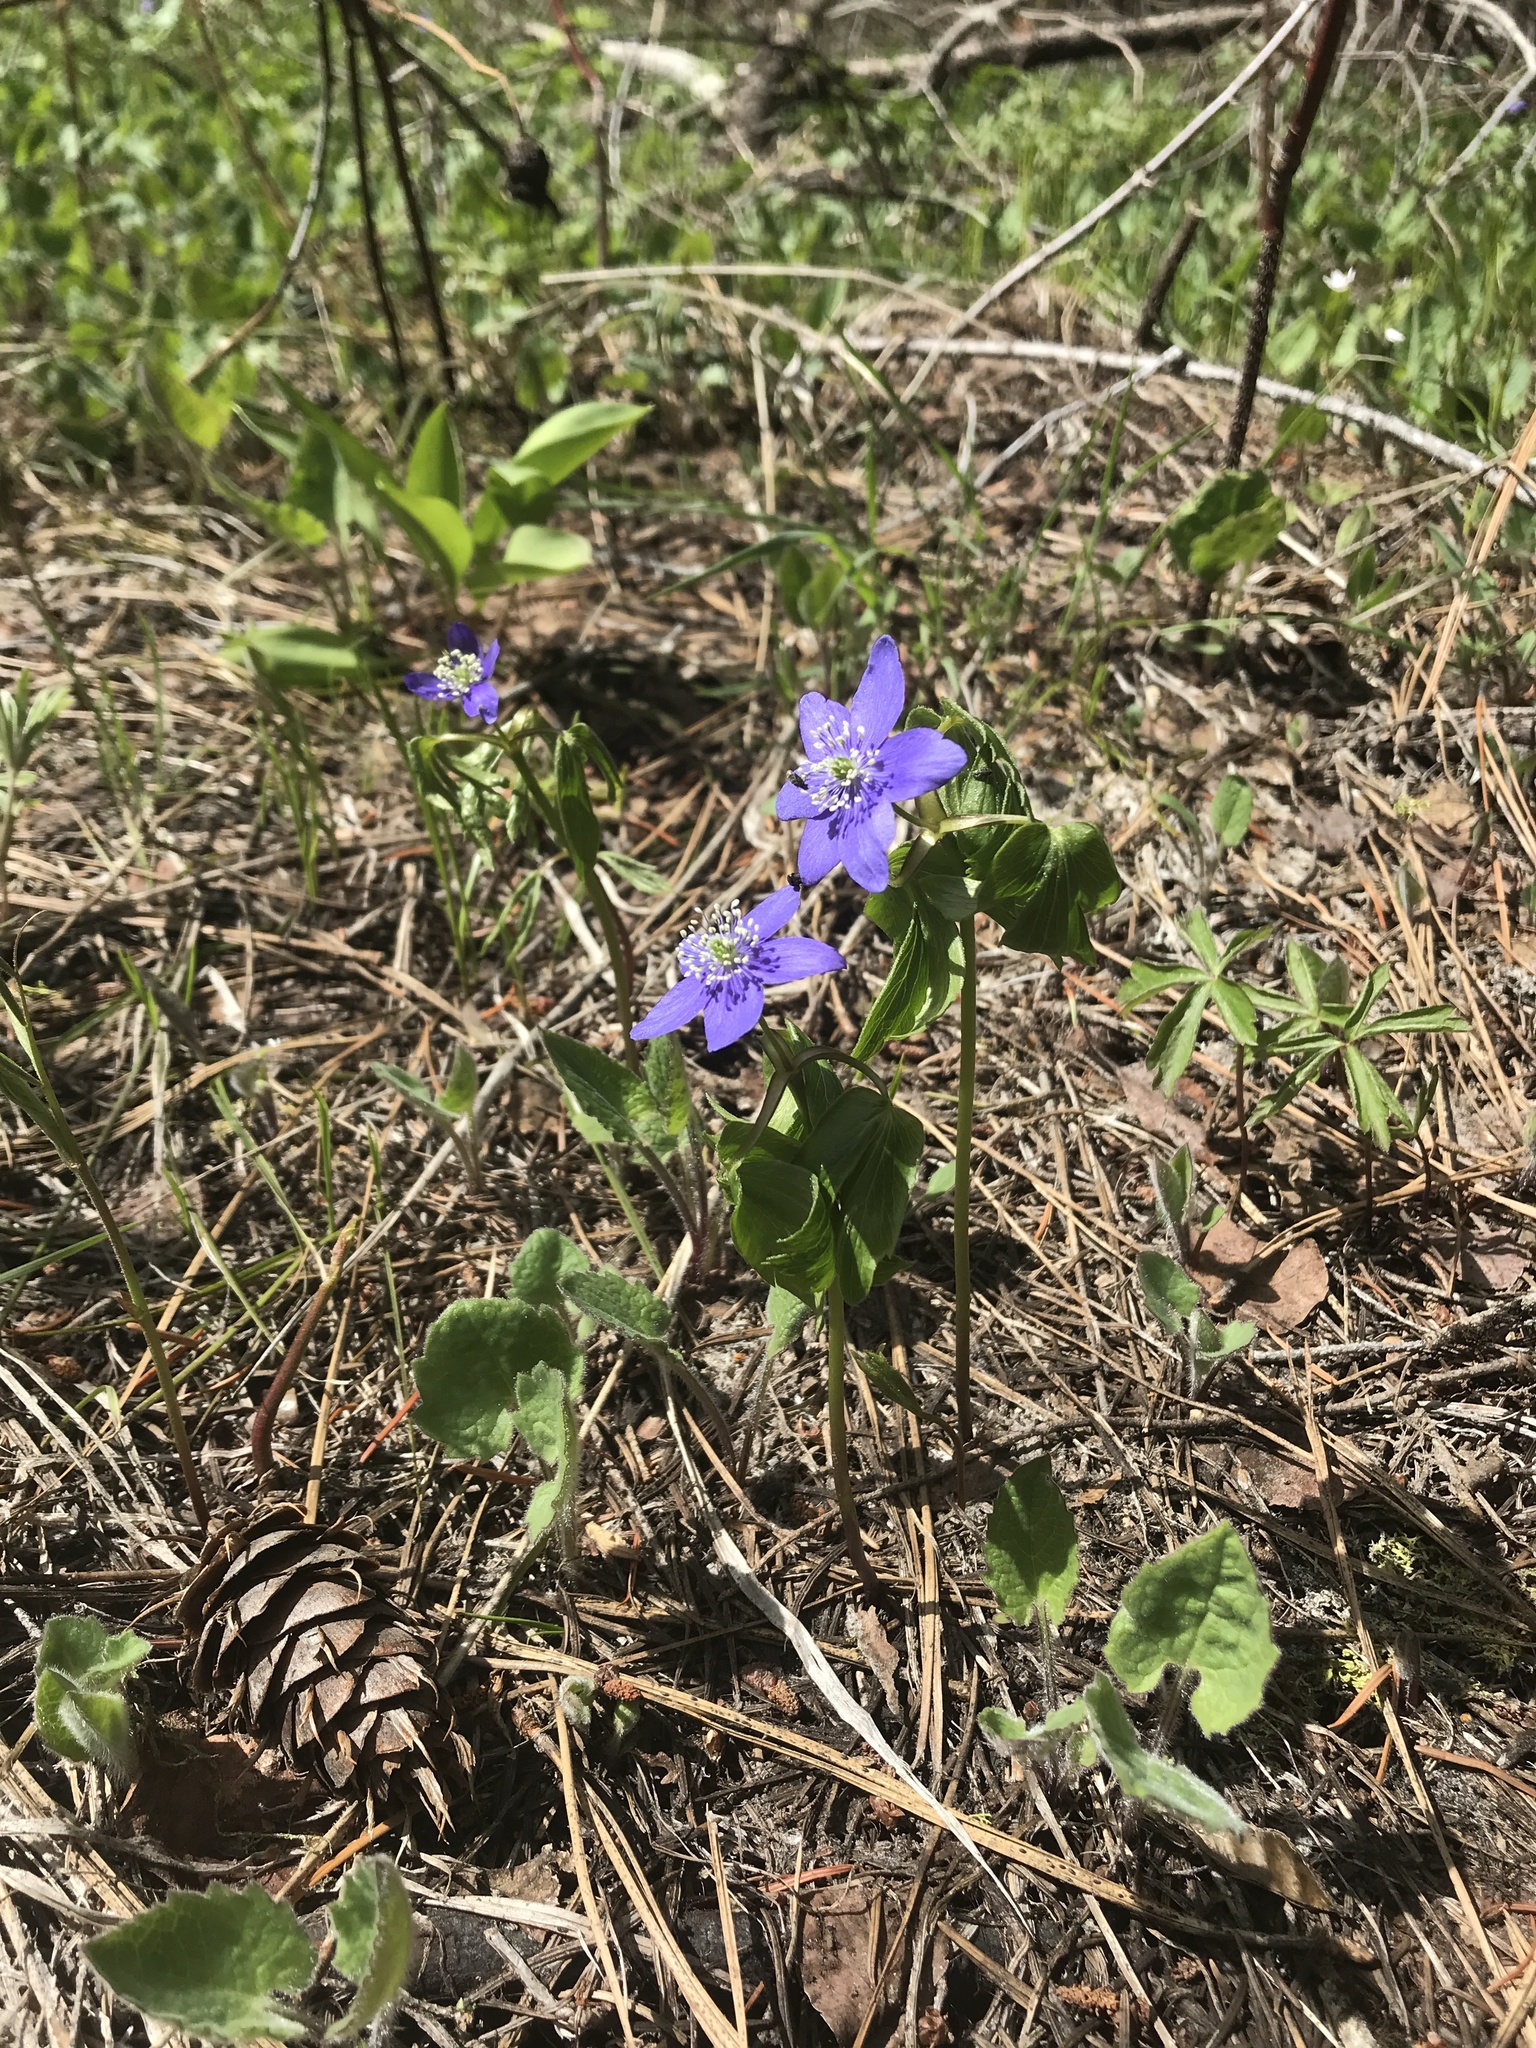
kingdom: Plantae
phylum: Tracheophyta
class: Magnoliopsida
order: Ranunculales
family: Ranunculaceae
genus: Anemone
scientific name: Anemone oregana
